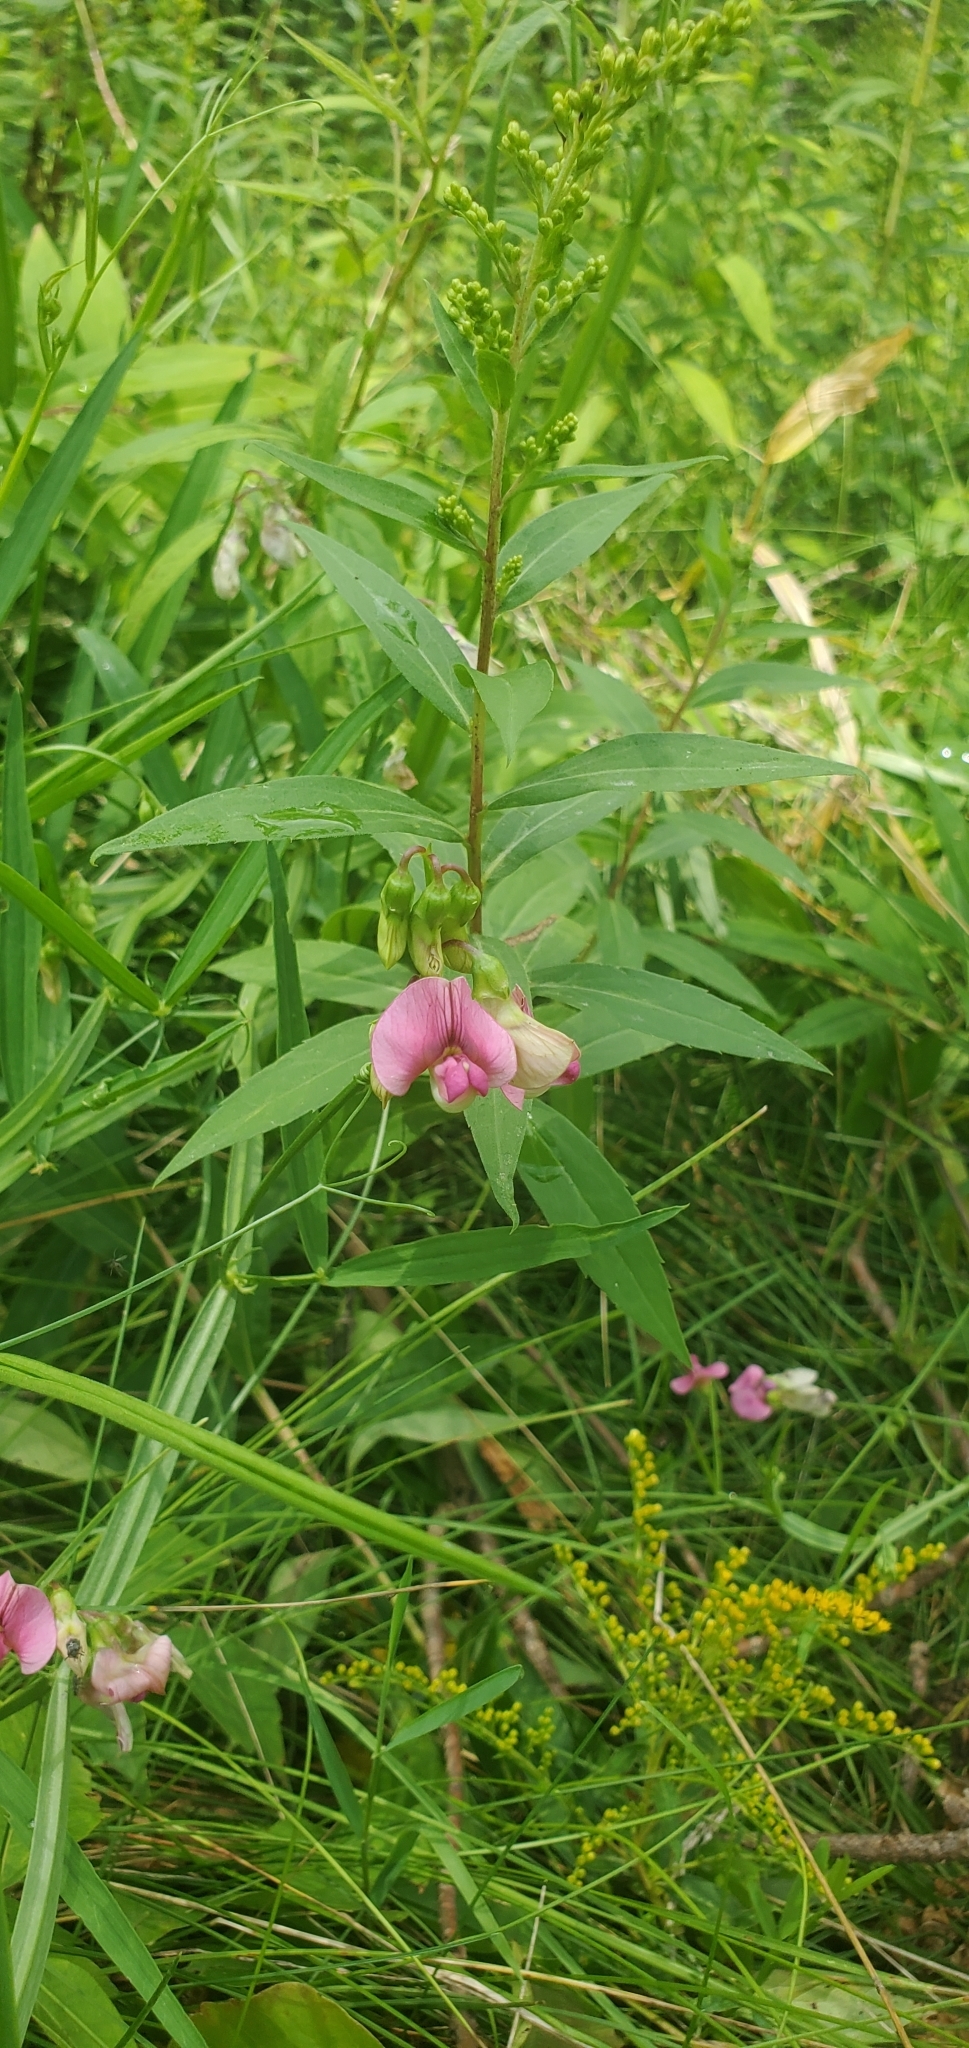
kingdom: Plantae
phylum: Tracheophyta
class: Magnoliopsida
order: Fabales
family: Fabaceae
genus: Lathyrus
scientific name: Lathyrus sylvestris
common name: Flat pea
